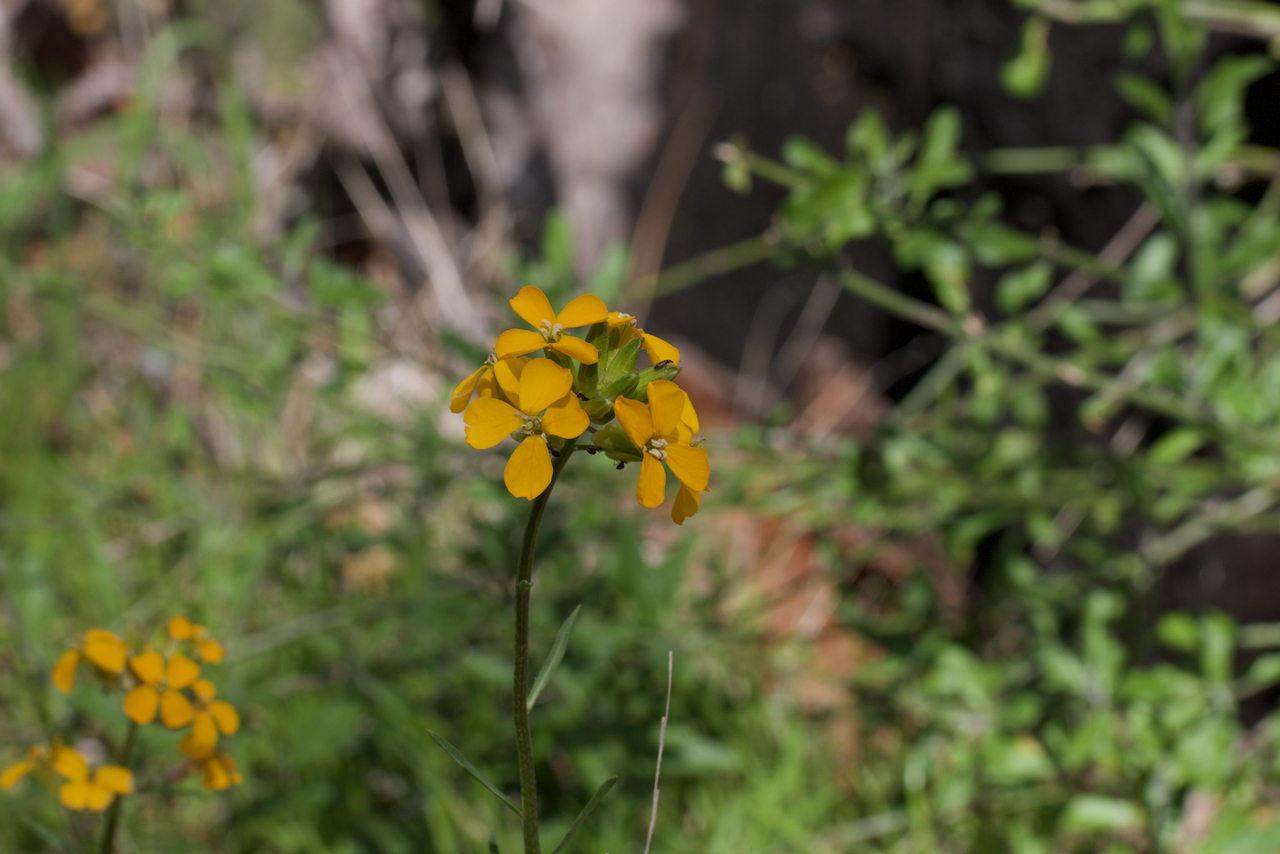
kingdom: Plantae
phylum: Tracheophyta
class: Magnoliopsida
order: Brassicales
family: Brassicaceae
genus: Erysimum
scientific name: Erysimum capitatum
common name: Western wallflower
